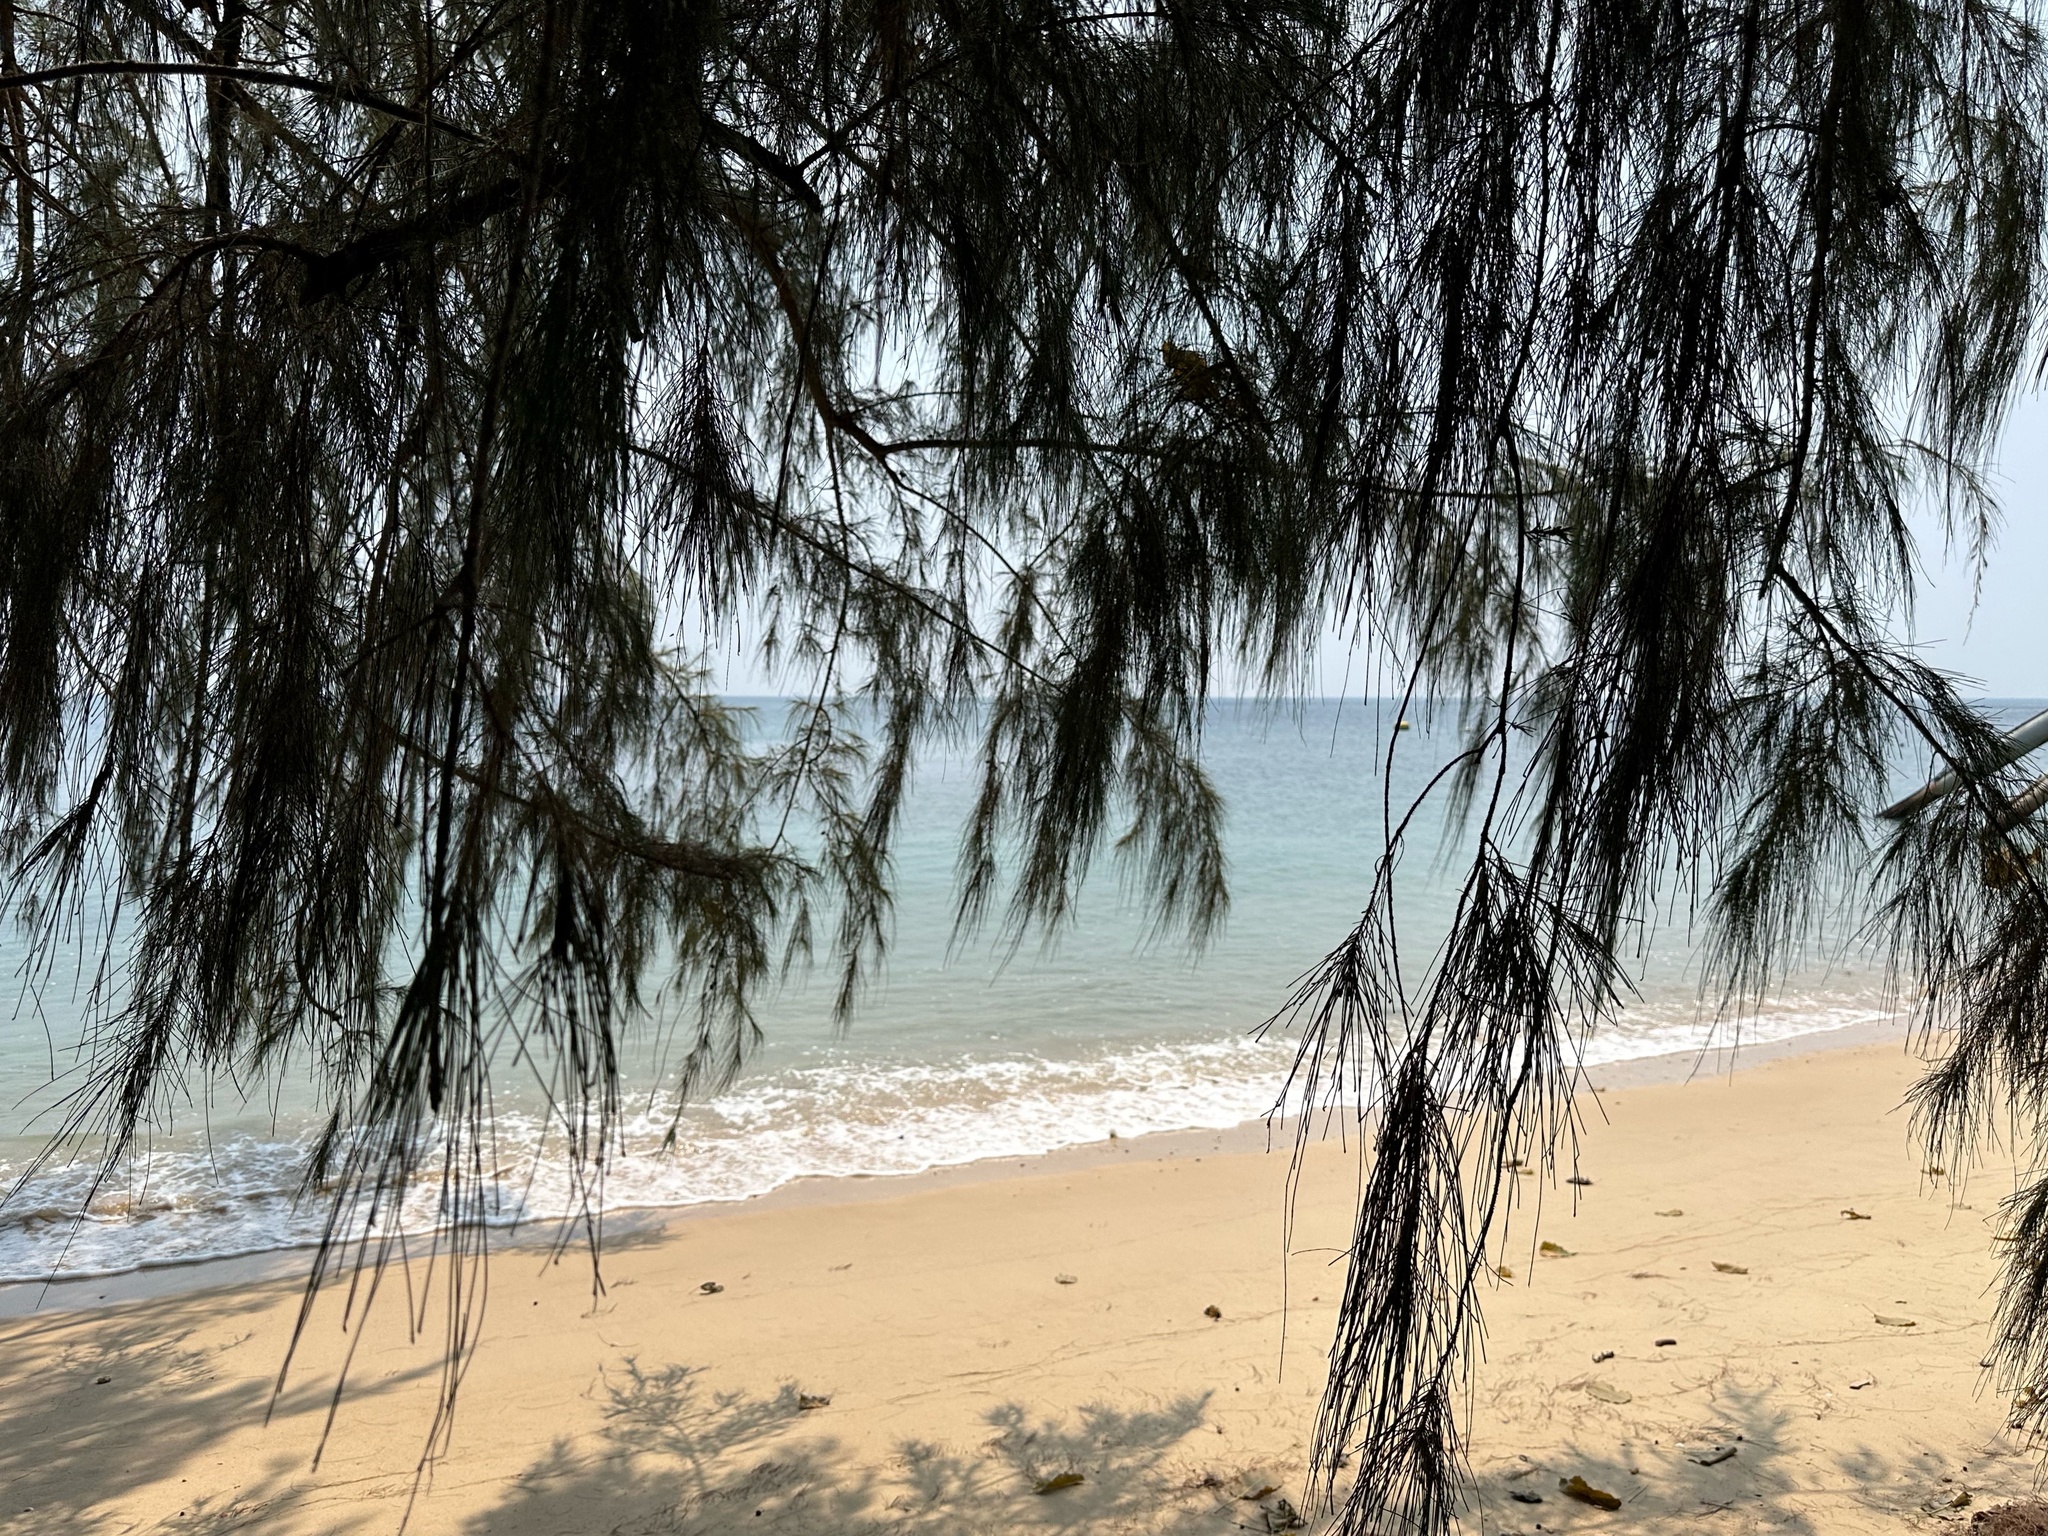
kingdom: Plantae
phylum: Tracheophyta
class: Magnoliopsida
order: Fagales
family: Casuarinaceae
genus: Casuarina
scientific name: Casuarina equisetifolia
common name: Beach sheoak
